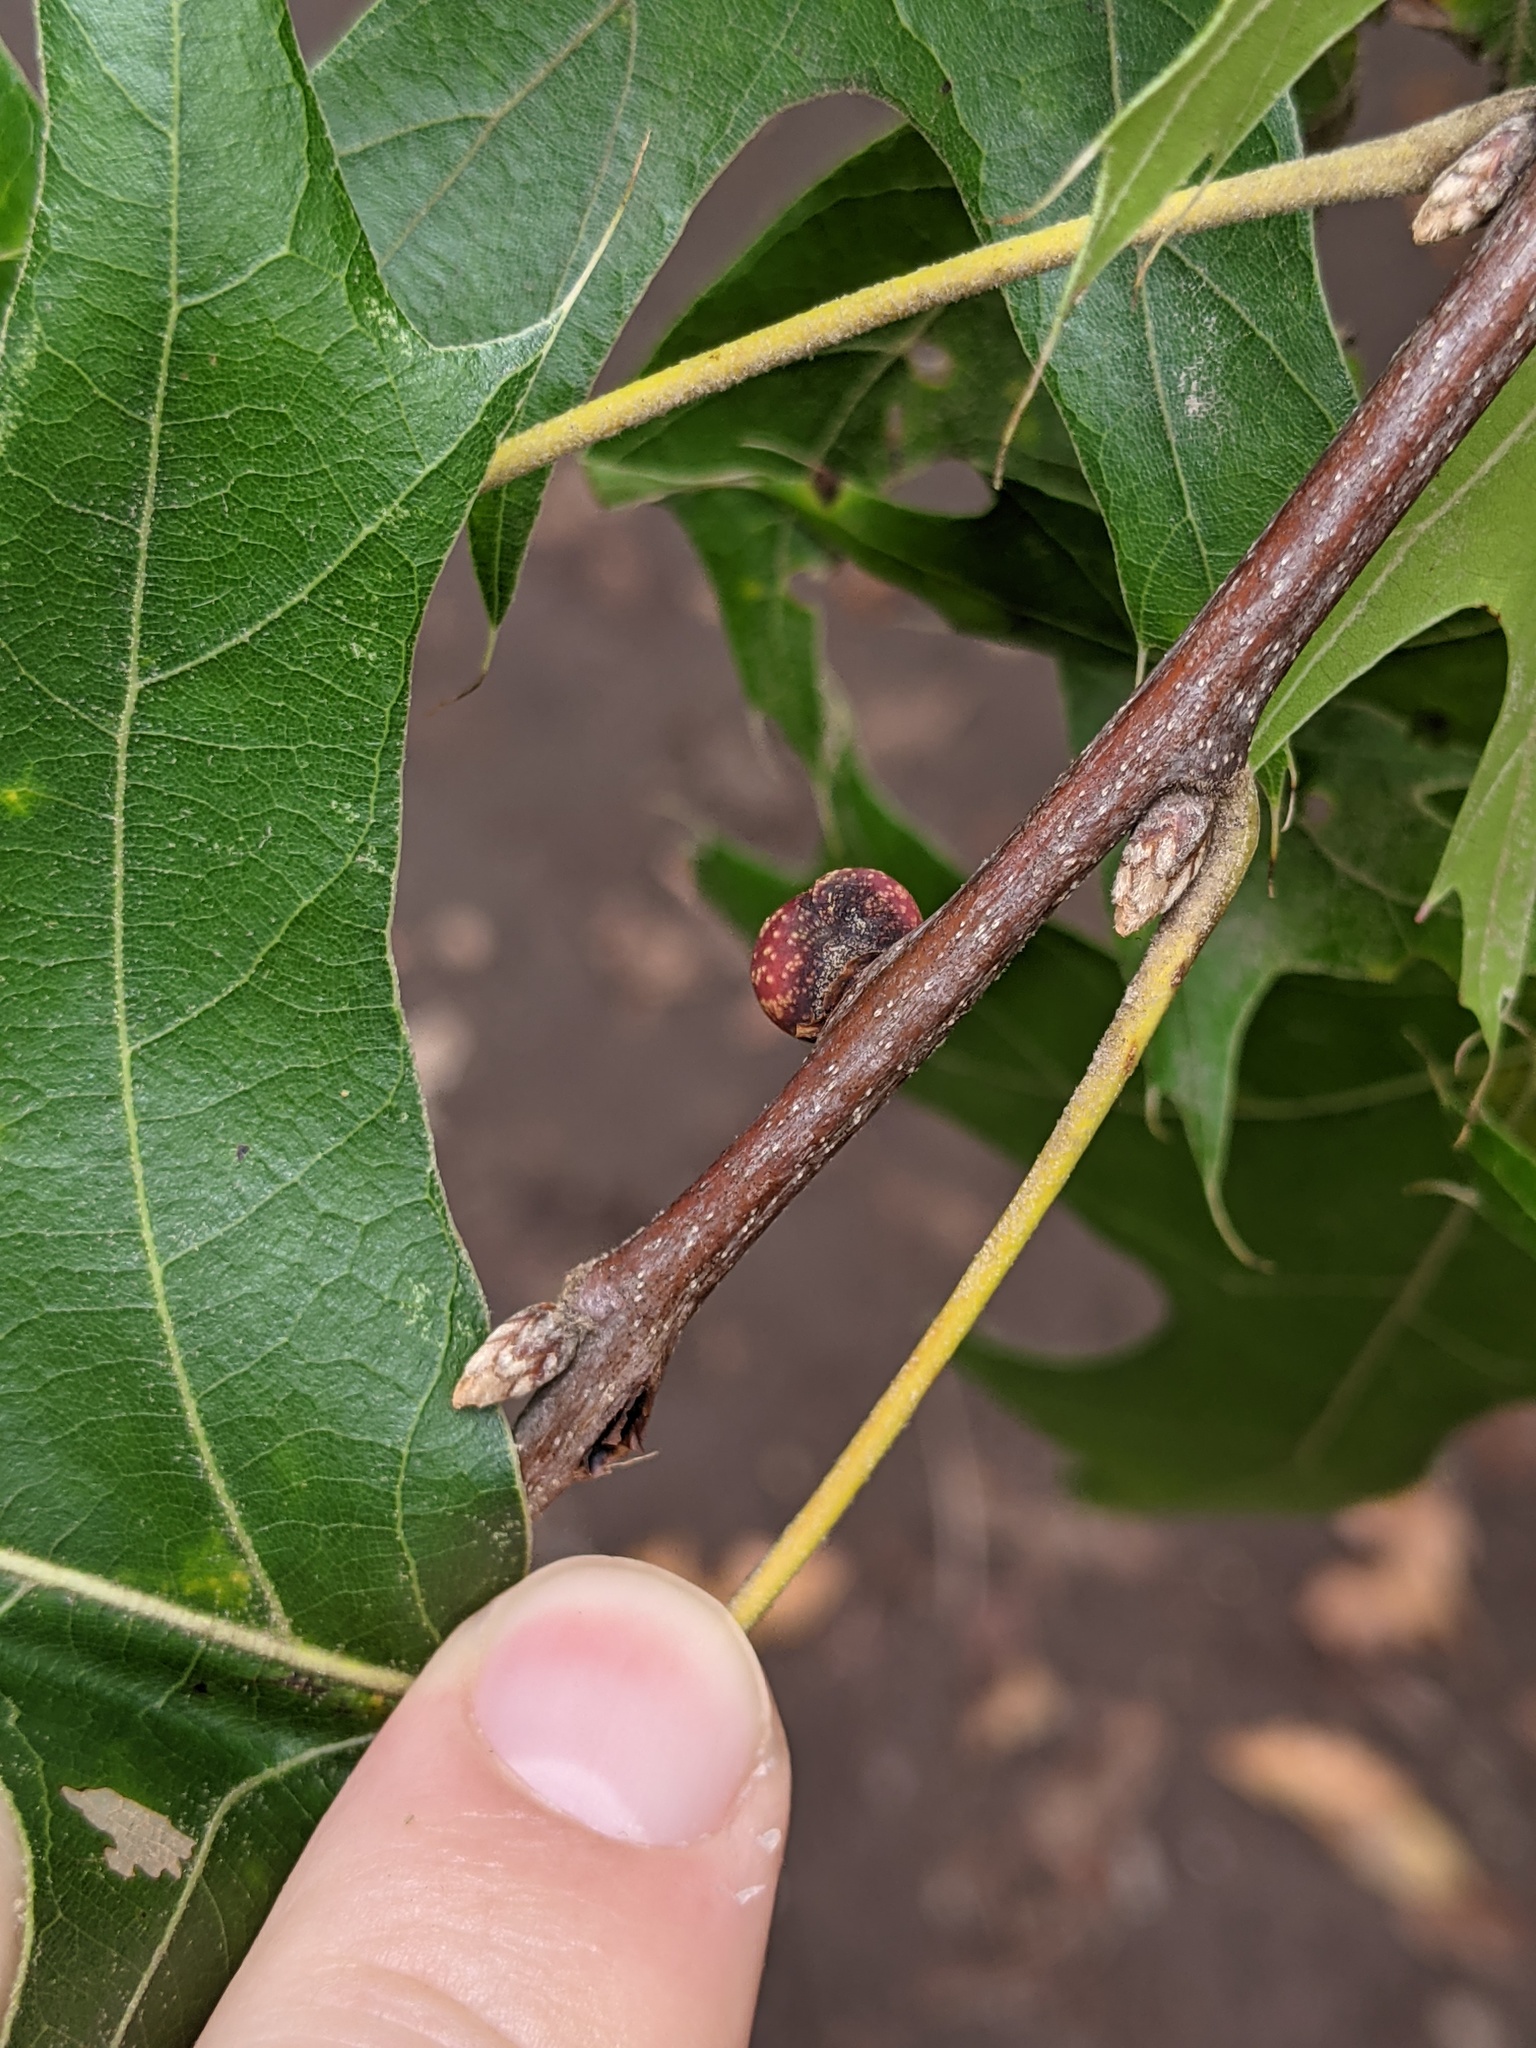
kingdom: Animalia
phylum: Arthropoda
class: Insecta
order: Hymenoptera
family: Cynipidae
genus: Kokkocynips
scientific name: Kokkocynips imbricariae
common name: Banded bullet gall wasp
